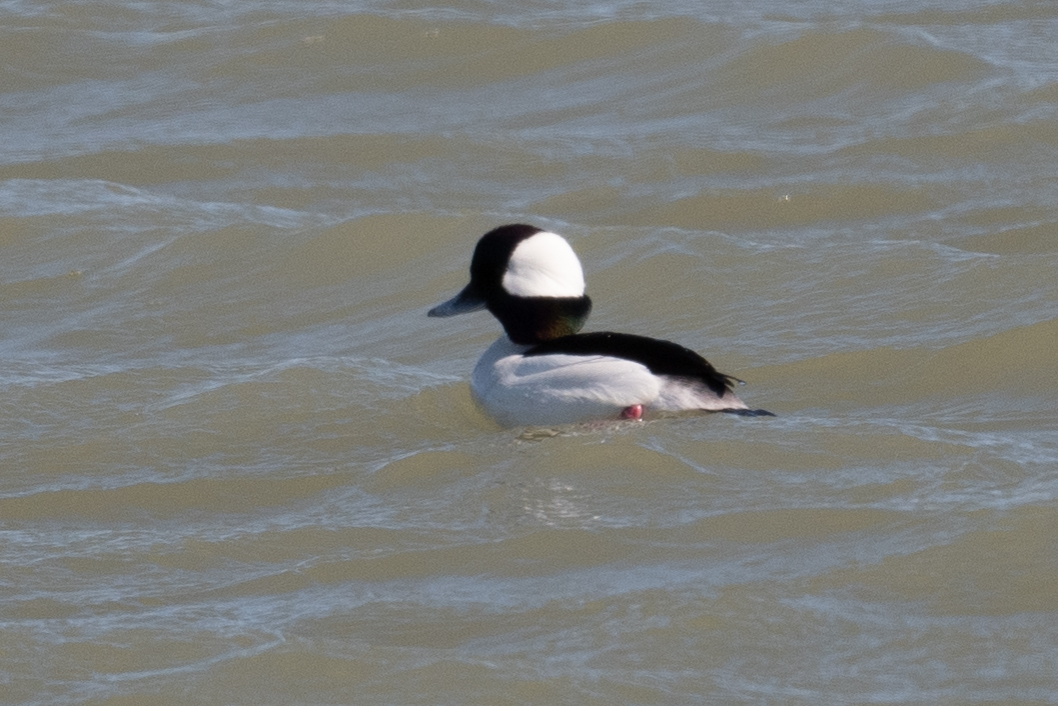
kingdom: Animalia
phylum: Chordata
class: Aves
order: Anseriformes
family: Anatidae
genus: Bucephala
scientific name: Bucephala albeola
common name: Bufflehead
